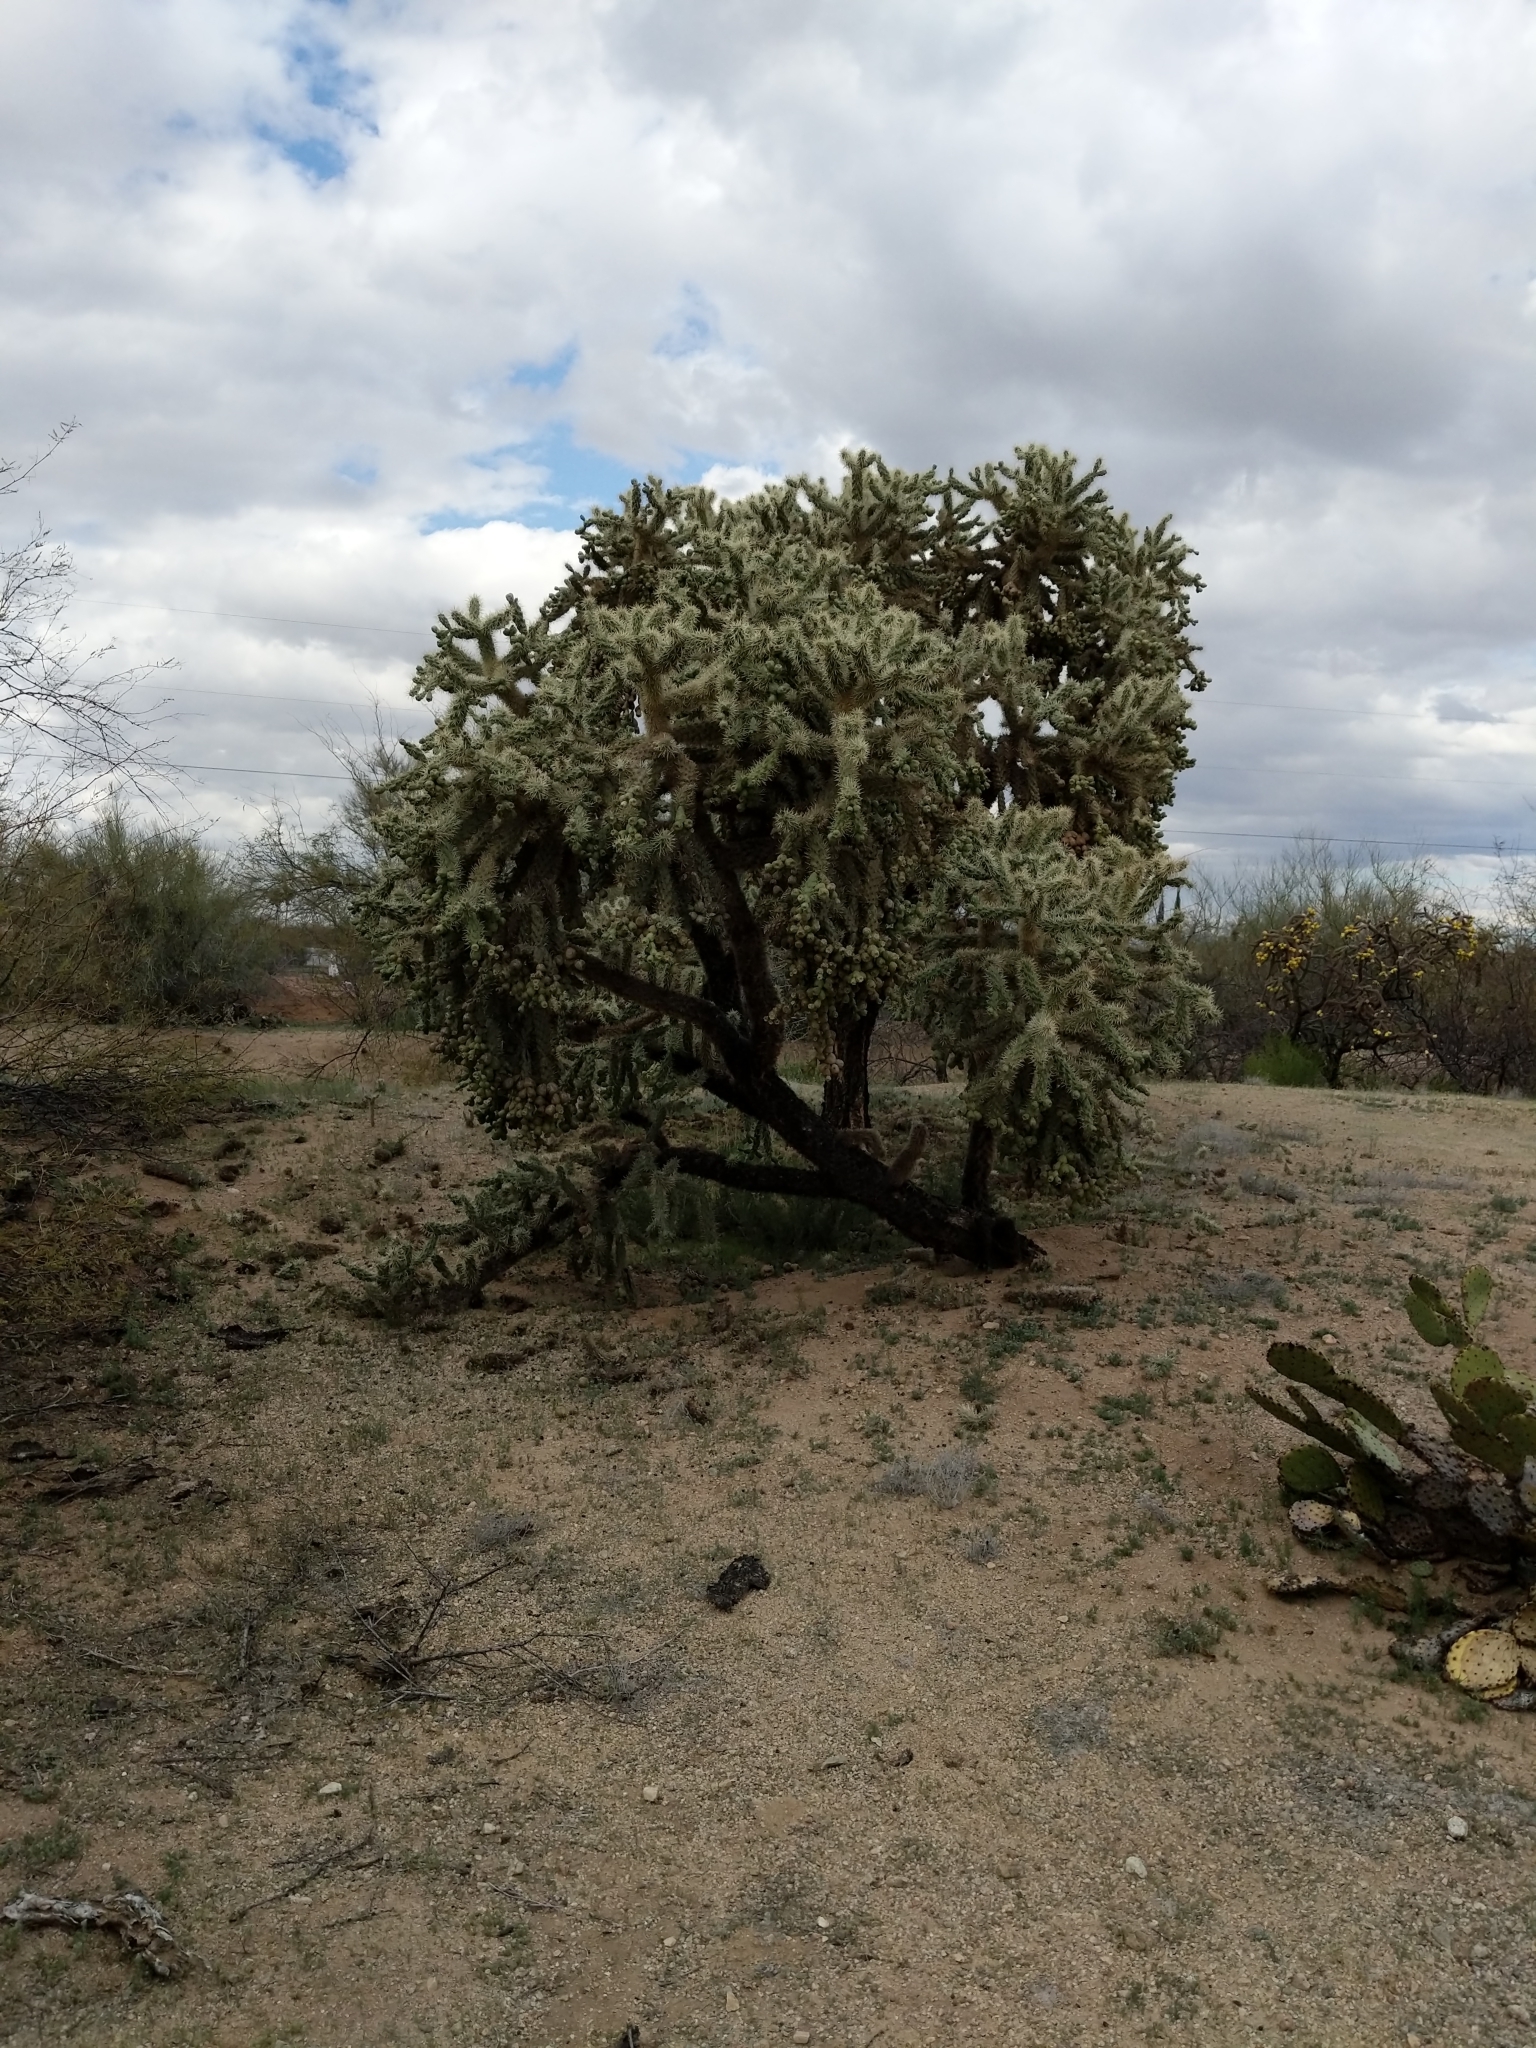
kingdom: Plantae
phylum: Tracheophyta
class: Magnoliopsida
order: Caryophyllales
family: Cactaceae
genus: Cylindropuntia
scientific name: Cylindropuntia fulgida
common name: Jumping cholla
